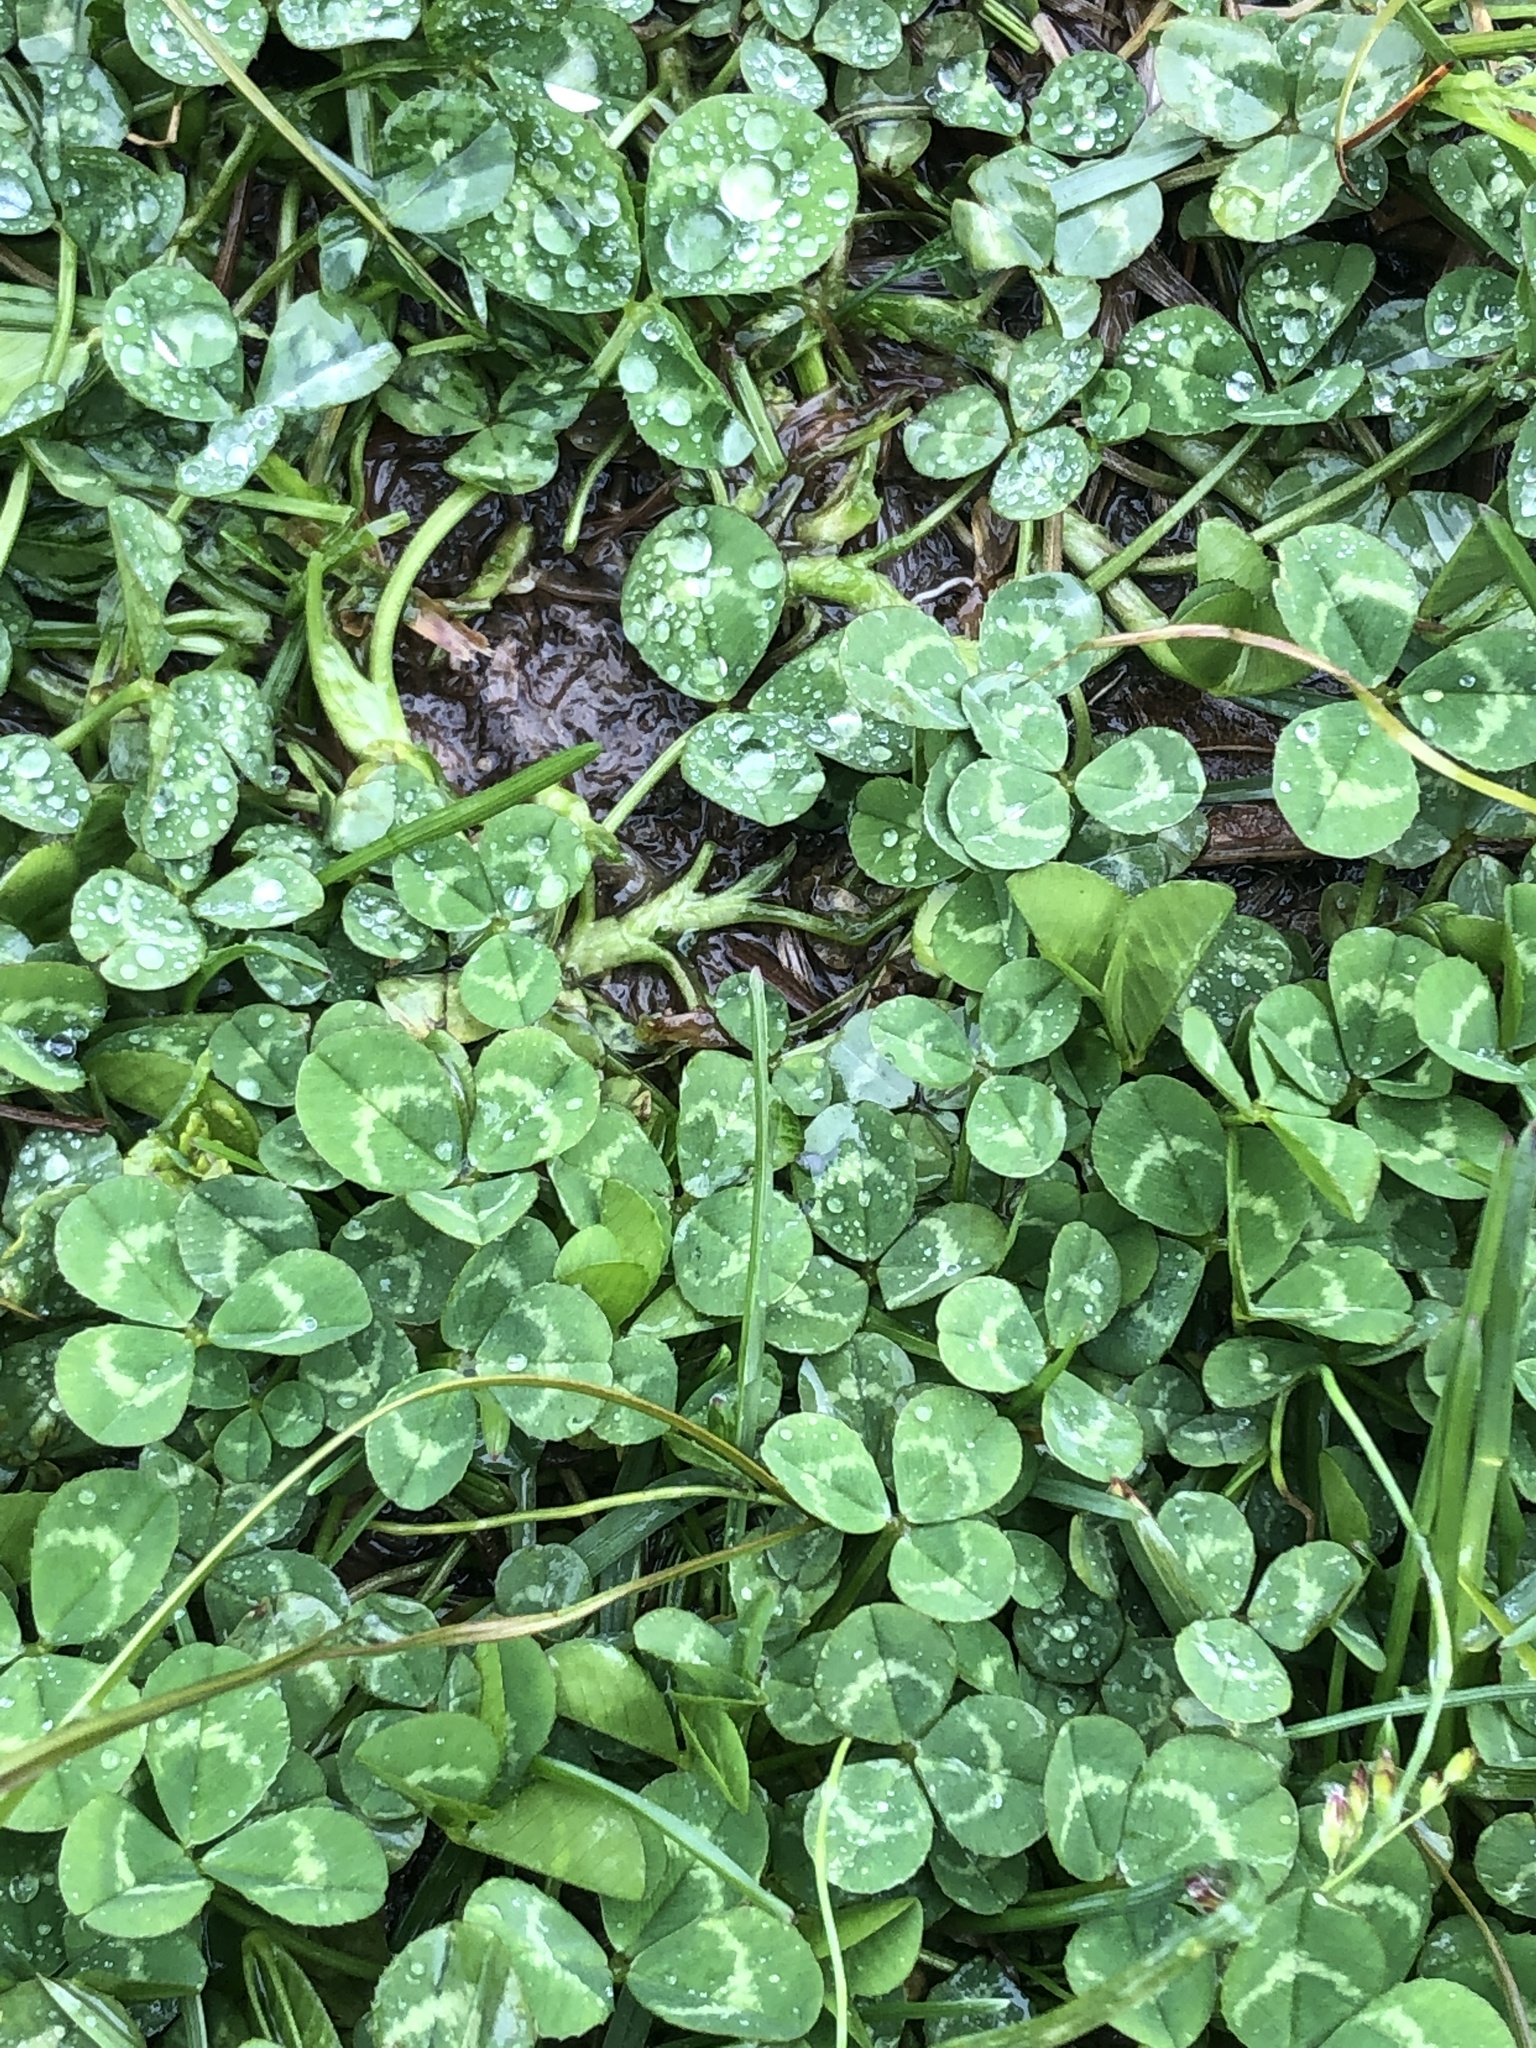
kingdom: Plantae
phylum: Tracheophyta
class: Magnoliopsida
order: Fabales
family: Fabaceae
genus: Trifolium
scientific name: Trifolium repens
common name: White clover
